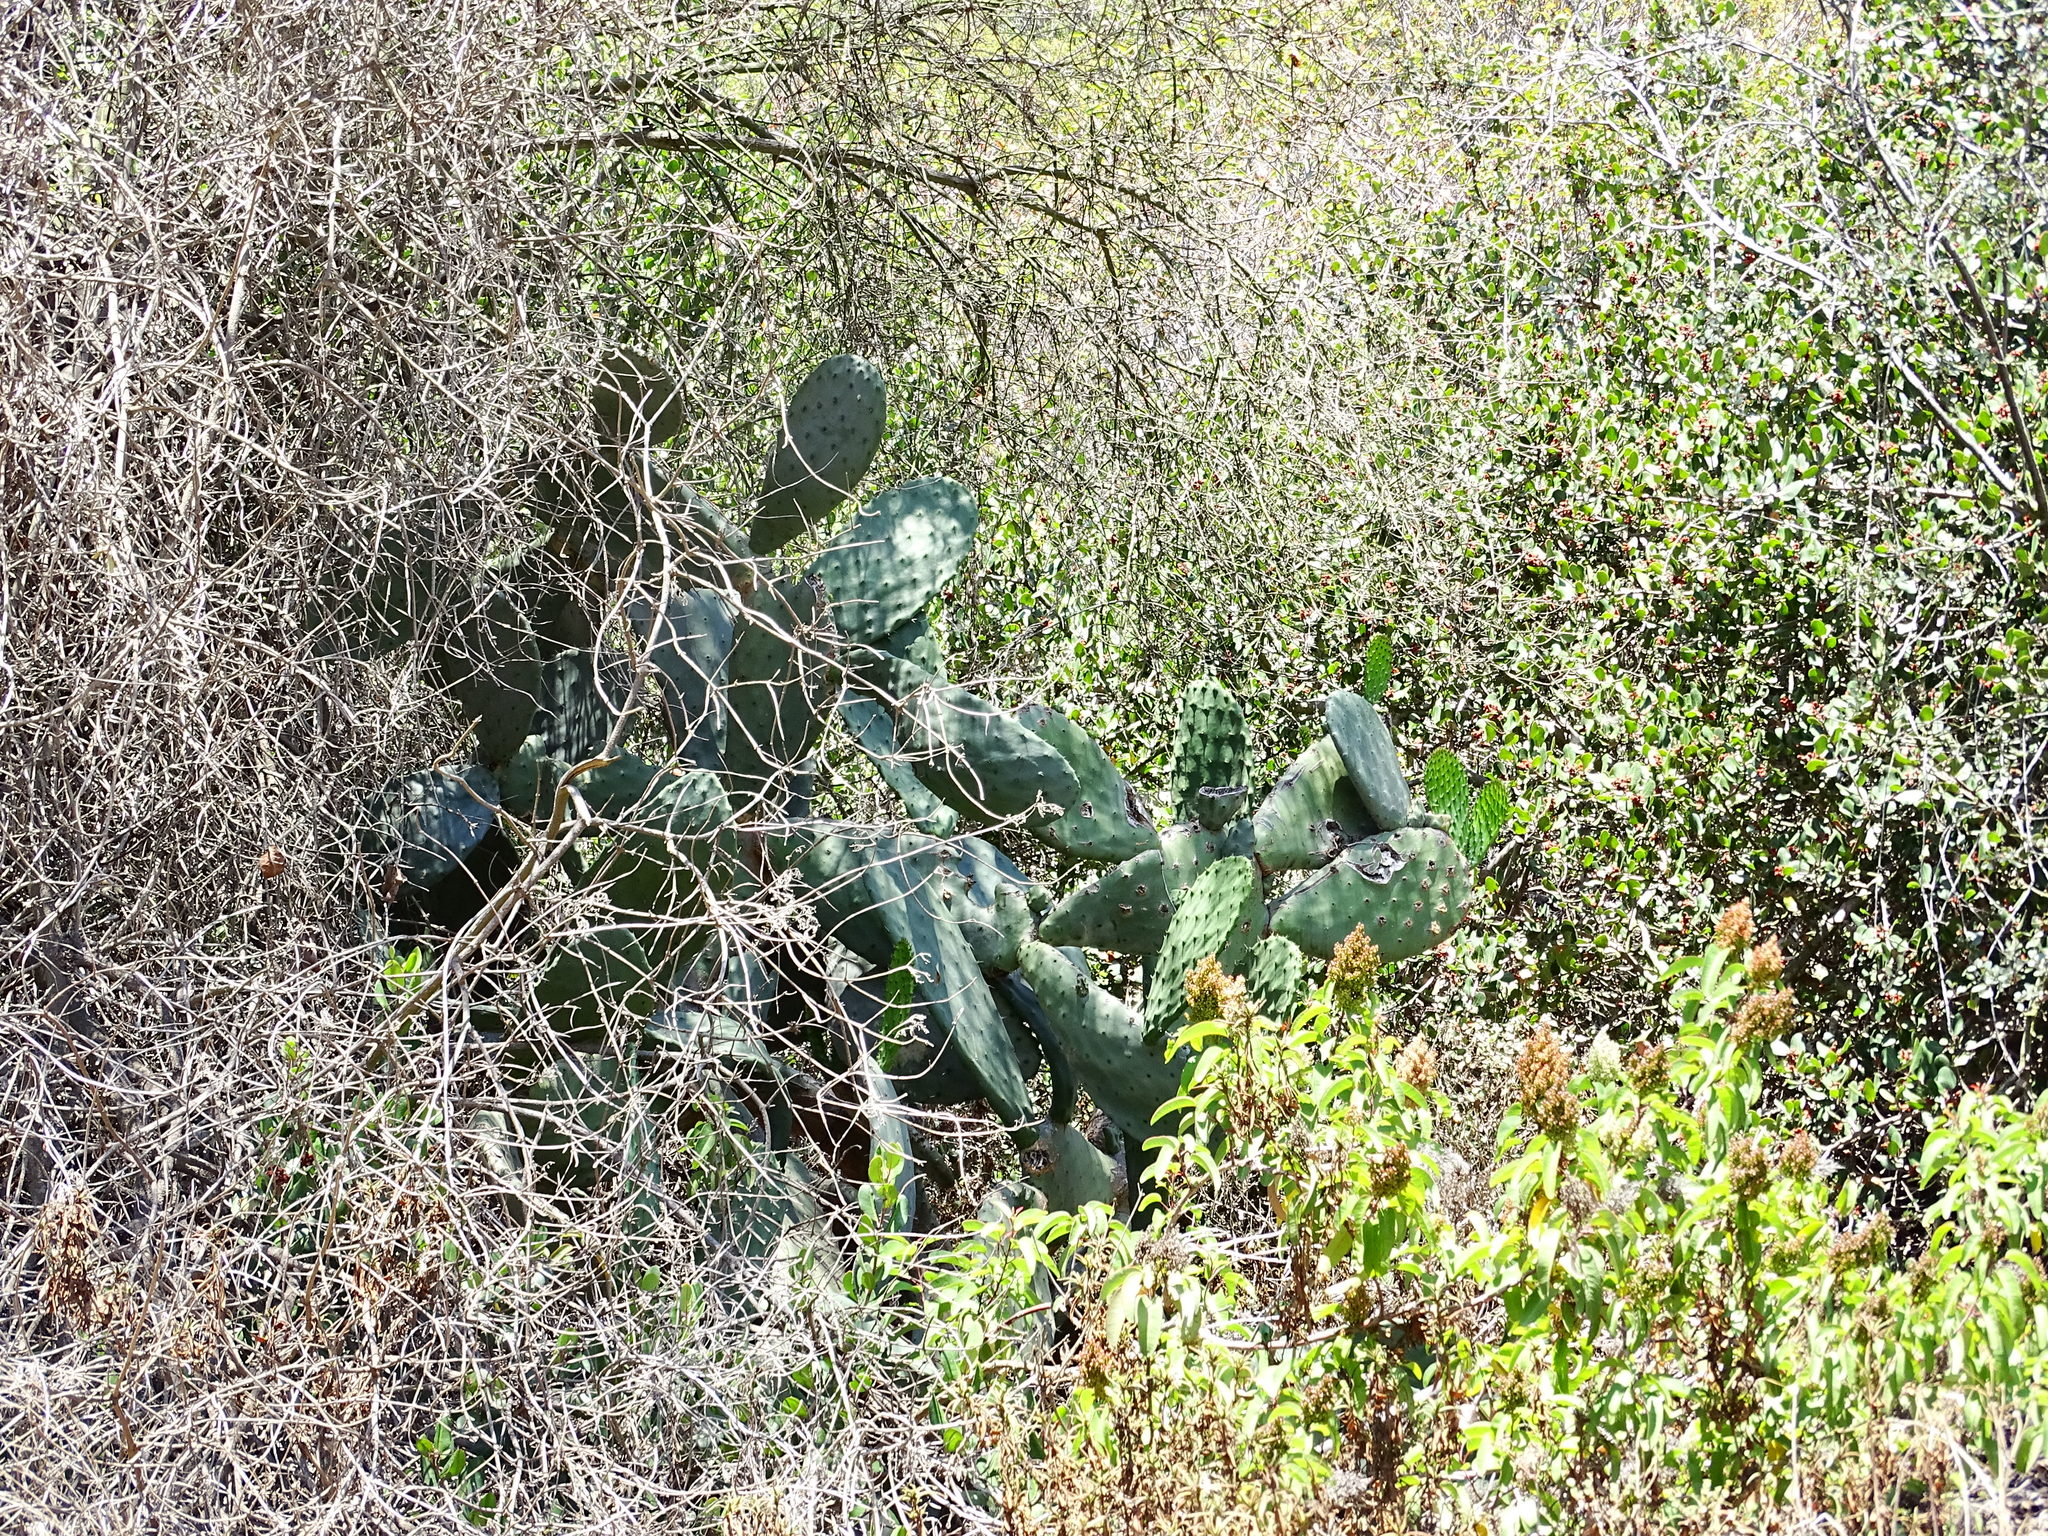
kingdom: Plantae
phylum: Tracheophyta
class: Magnoliopsida
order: Caryophyllales
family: Cactaceae
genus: Opuntia
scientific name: Opuntia ficus-indica
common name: Barbary fig
